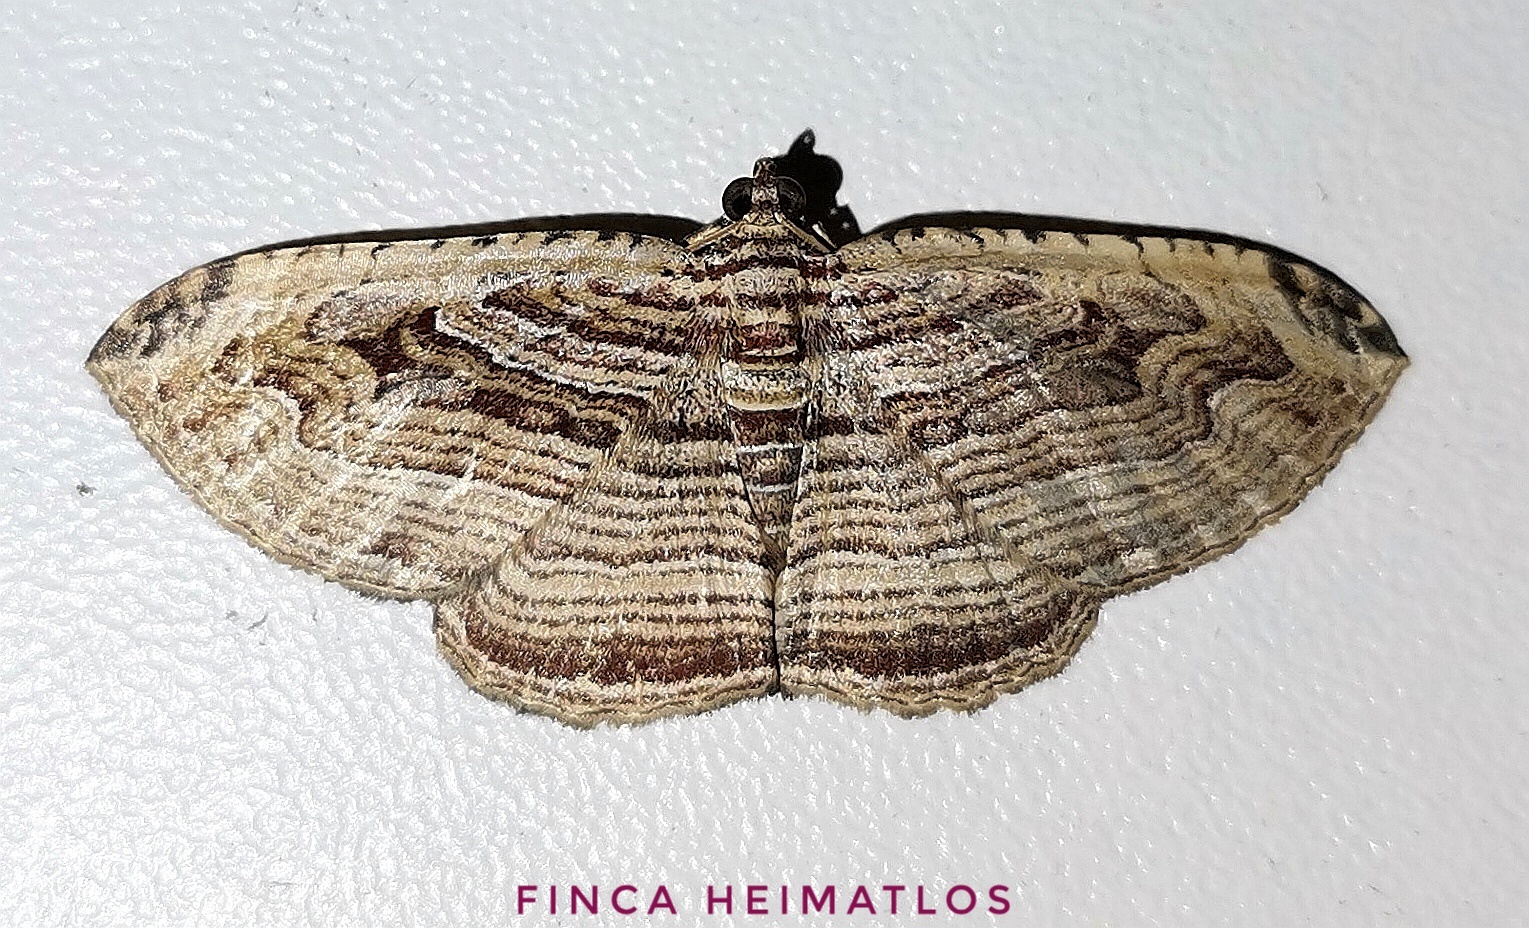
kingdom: Animalia
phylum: Arthropoda
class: Insecta
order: Lepidoptera
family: Geometridae
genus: Bagodares
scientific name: Bagodares sturnularia
